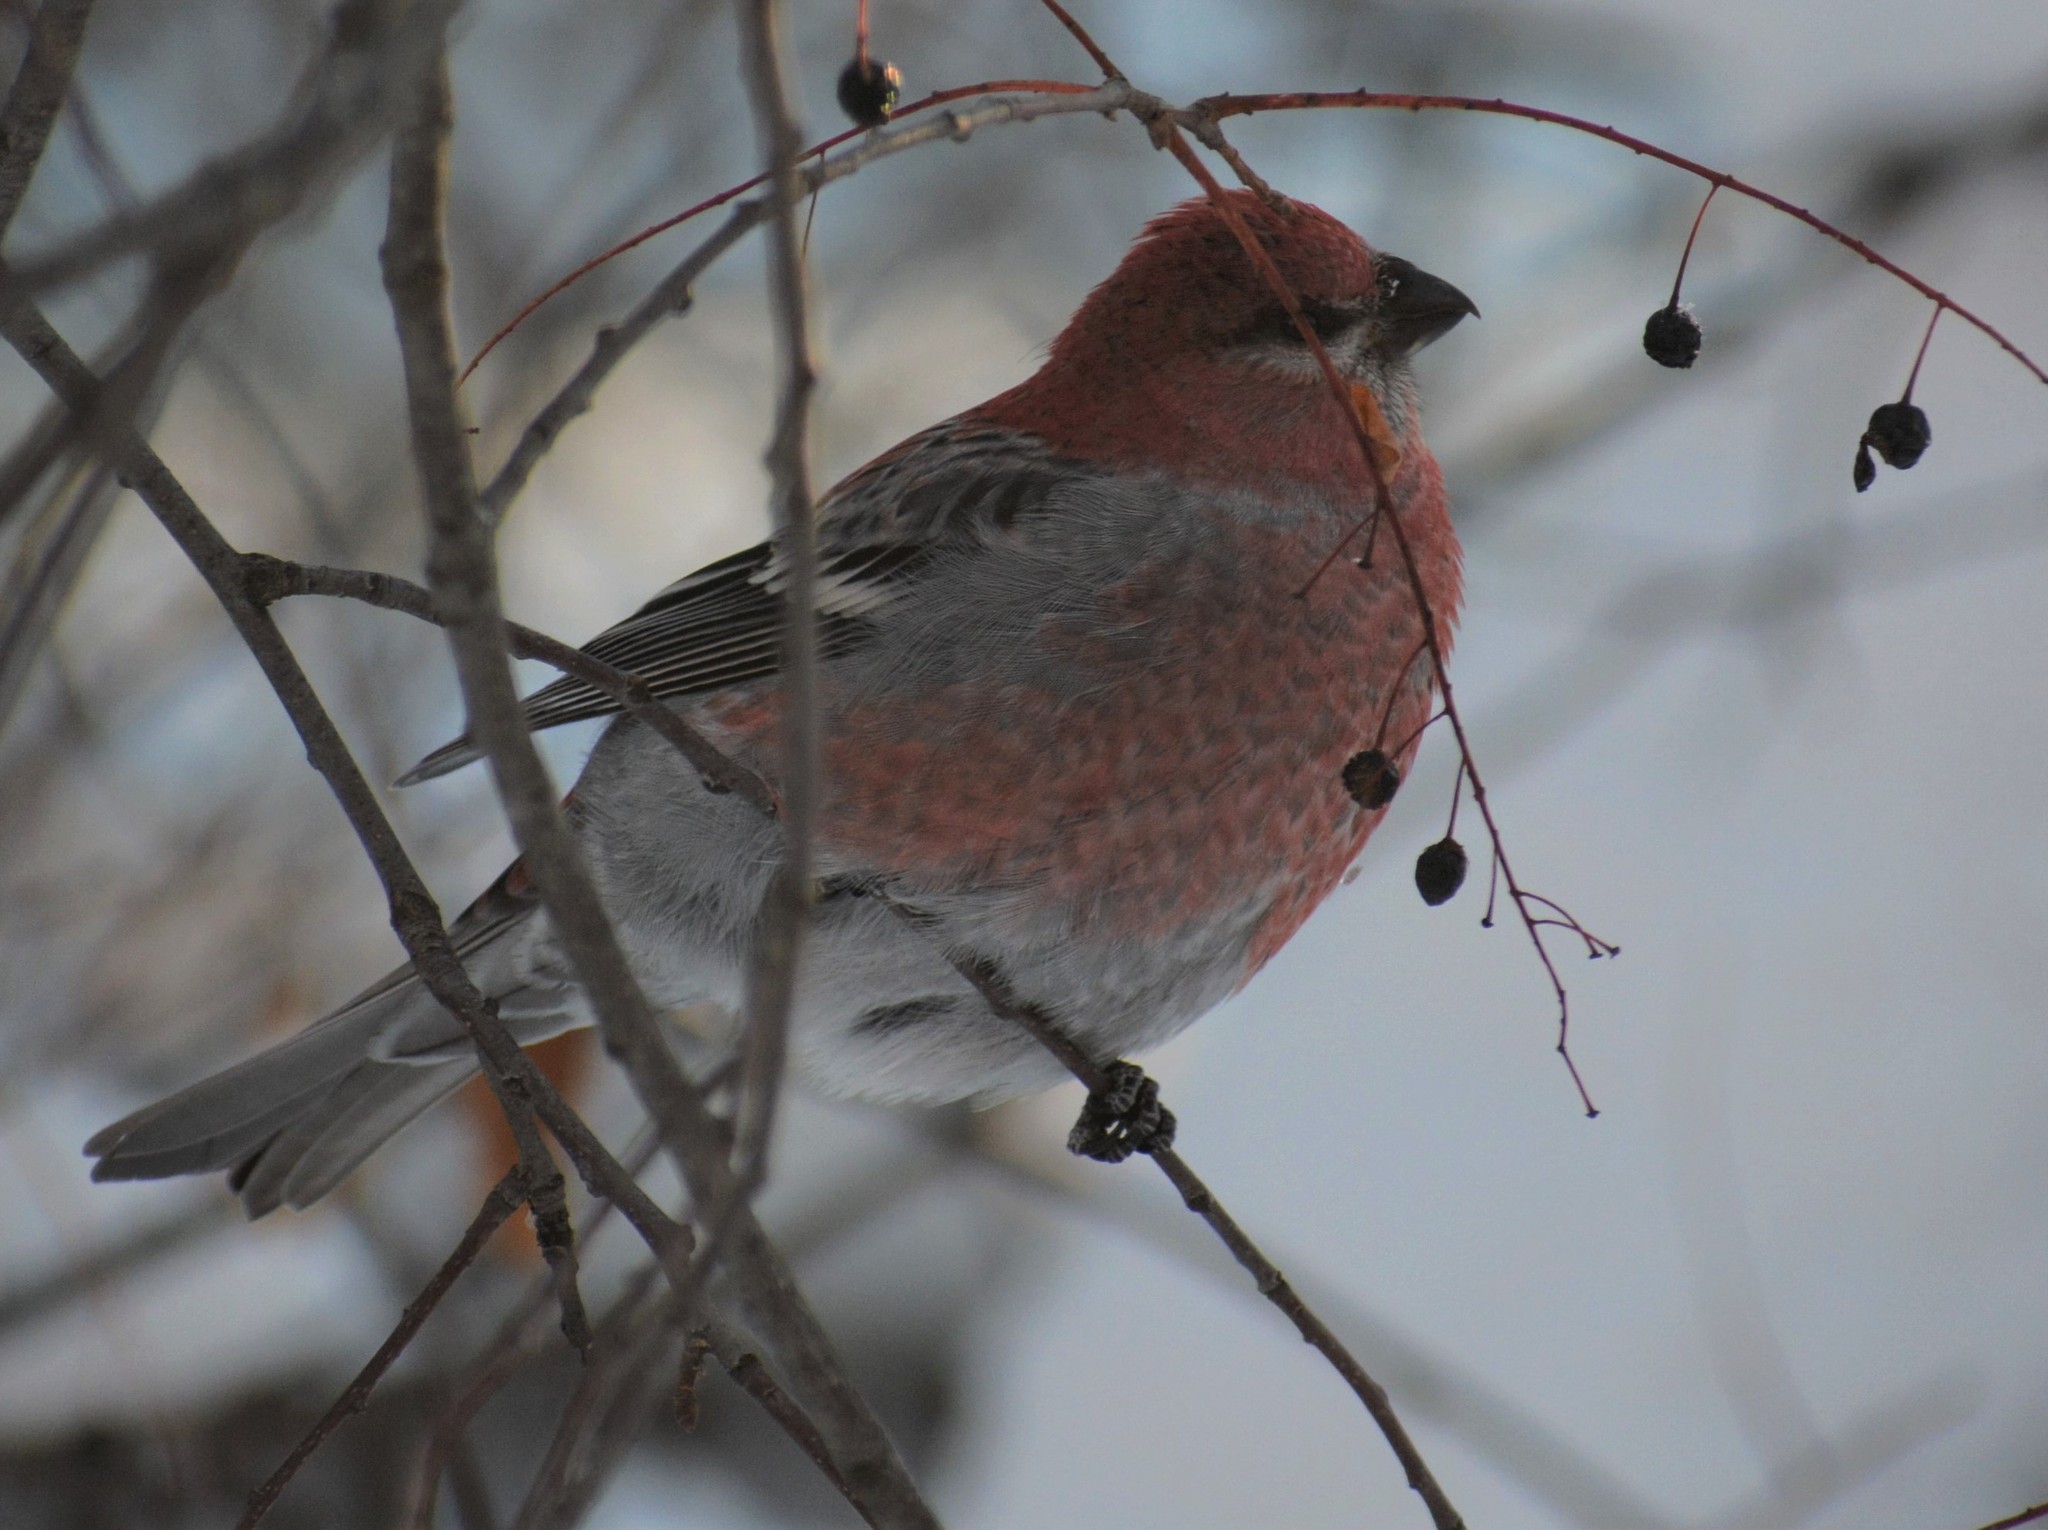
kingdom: Animalia
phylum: Chordata
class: Aves
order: Passeriformes
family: Fringillidae
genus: Pinicola
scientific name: Pinicola enucleator
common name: Pine grosbeak
